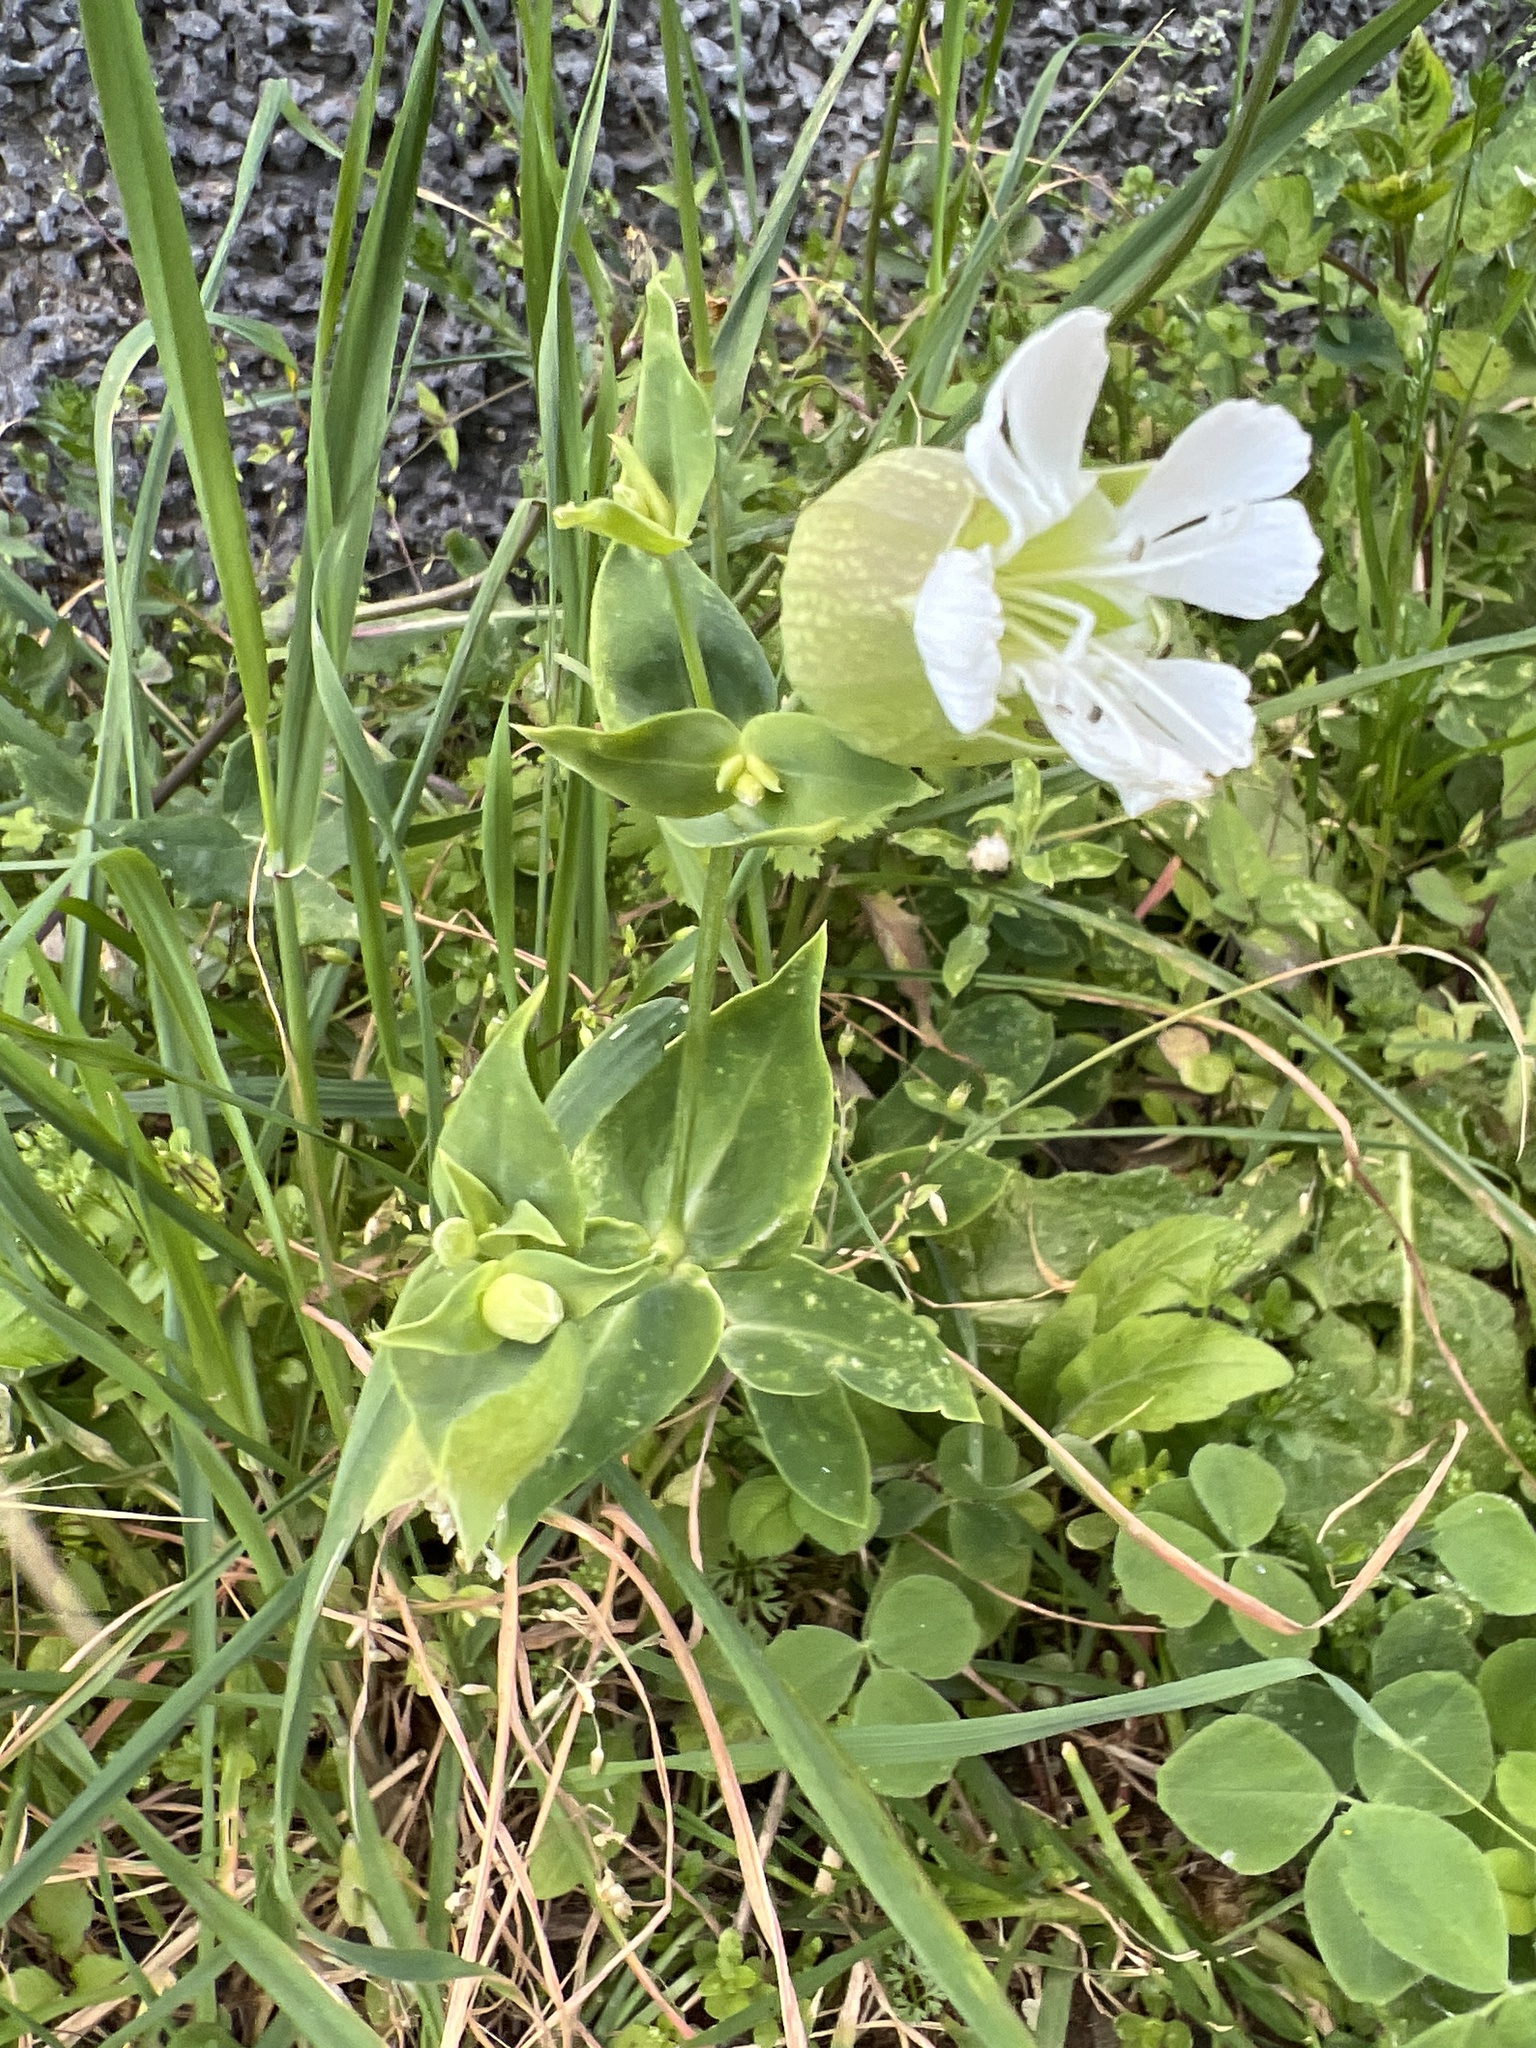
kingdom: Plantae
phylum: Tracheophyta
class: Magnoliopsida
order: Caryophyllales
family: Caryophyllaceae
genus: Silene
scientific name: Silene uniflora
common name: Sea campion
